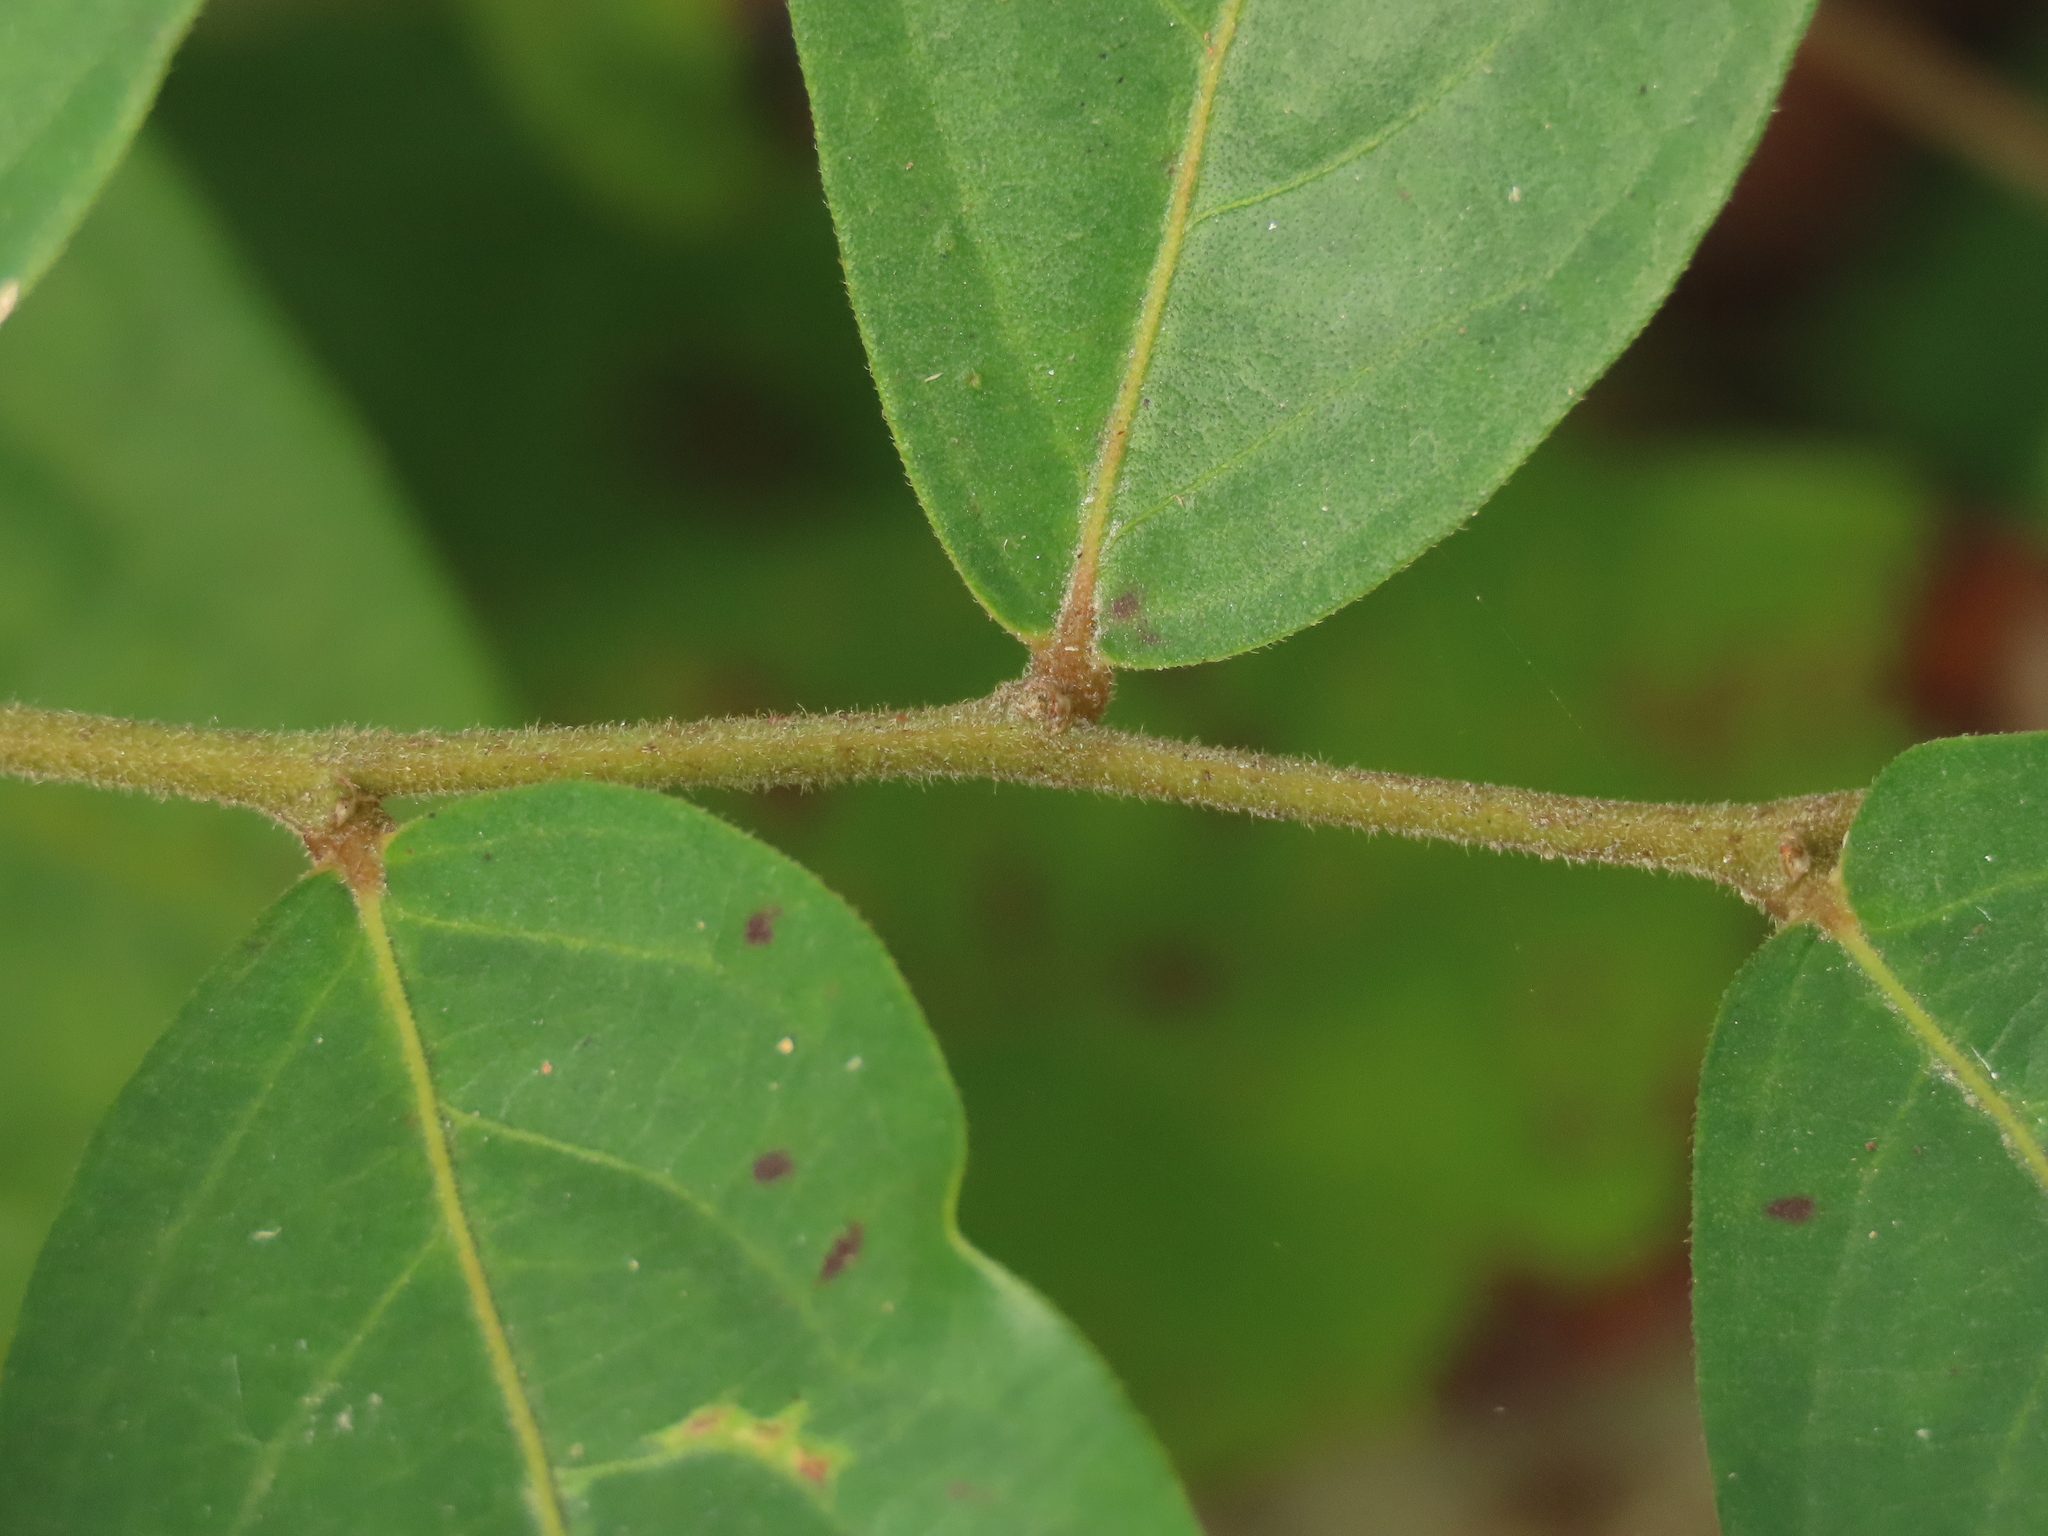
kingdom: Plantae
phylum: Tracheophyta
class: Magnoliopsida
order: Malpighiales
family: Phyllanthaceae
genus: Glochidion
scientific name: Glochidion philippicum
